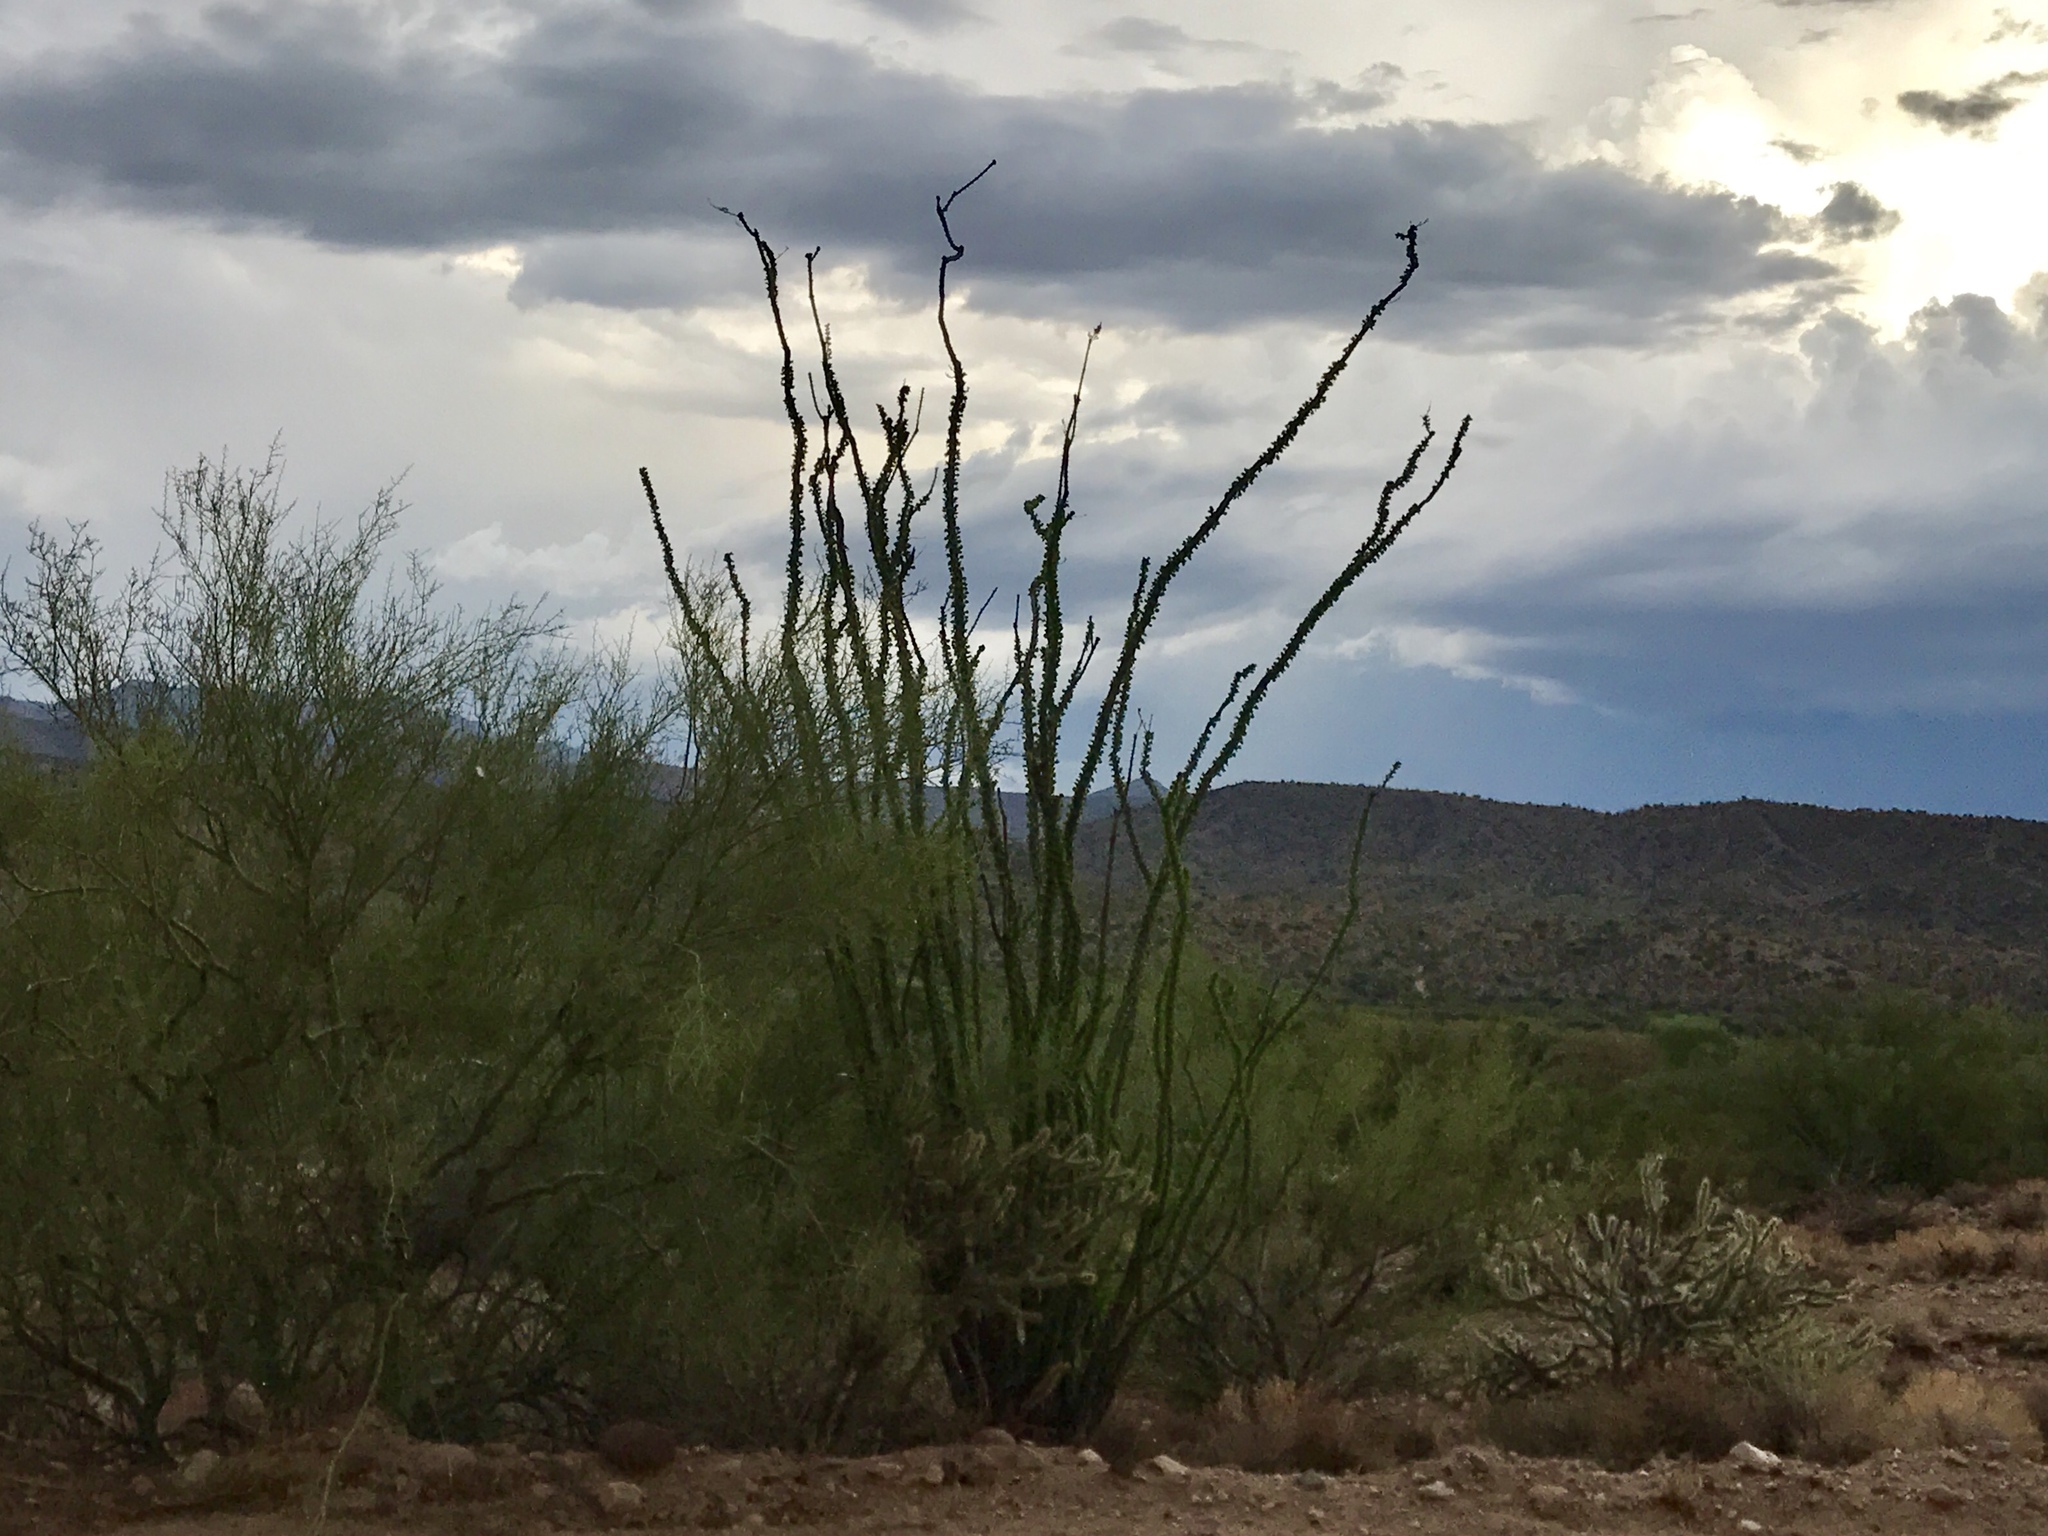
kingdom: Plantae
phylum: Tracheophyta
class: Magnoliopsida
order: Ericales
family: Fouquieriaceae
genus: Fouquieria
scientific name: Fouquieria splendens
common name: Vine-cactus
